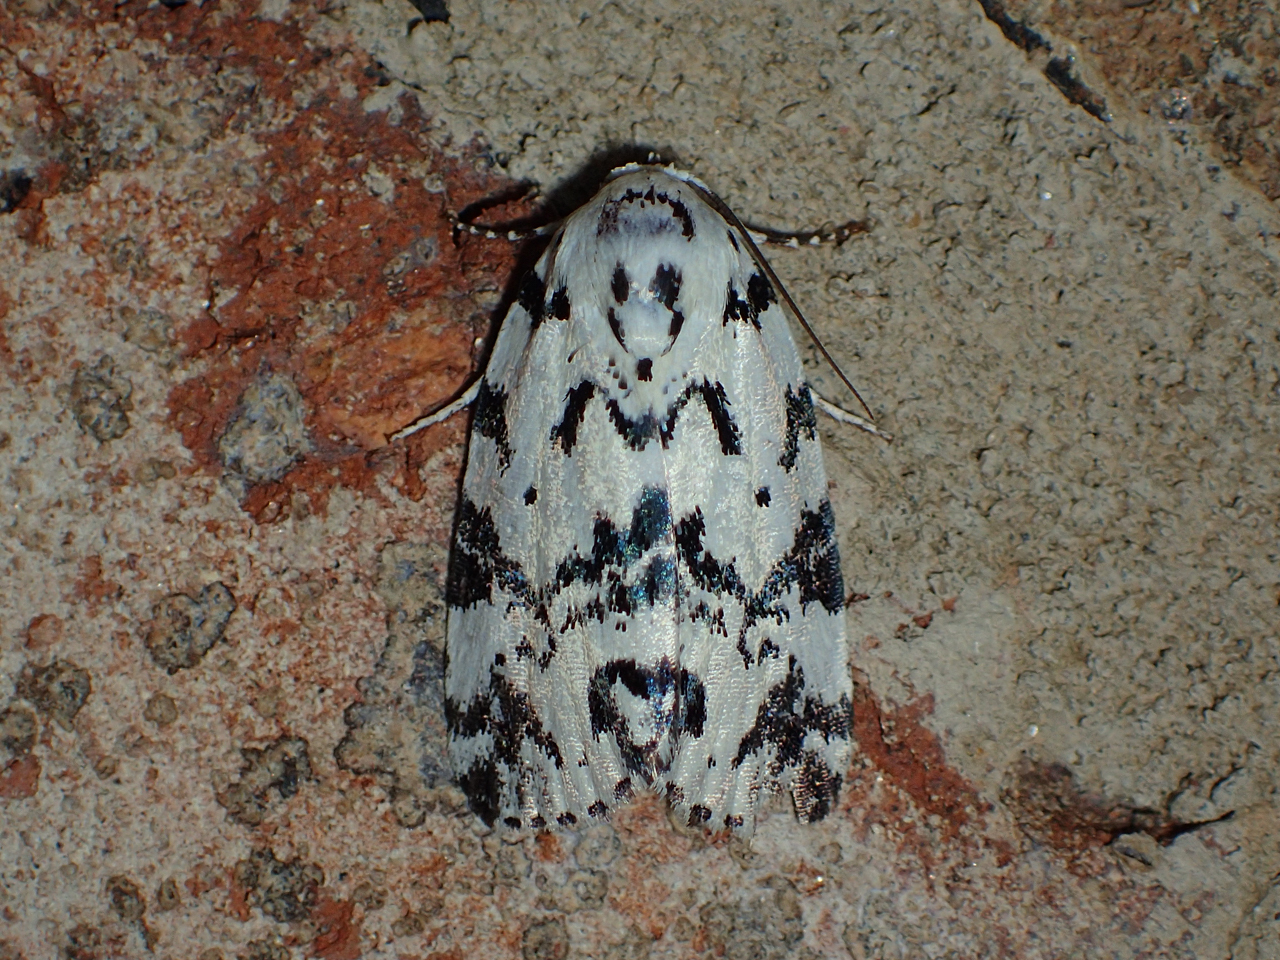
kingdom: Animalia
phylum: Arthropoda
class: Insecta
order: Lepidoptera
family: Noctuidae
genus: Polygrammate
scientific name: Polygrammate hebraeicum
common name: Hebrew moth
